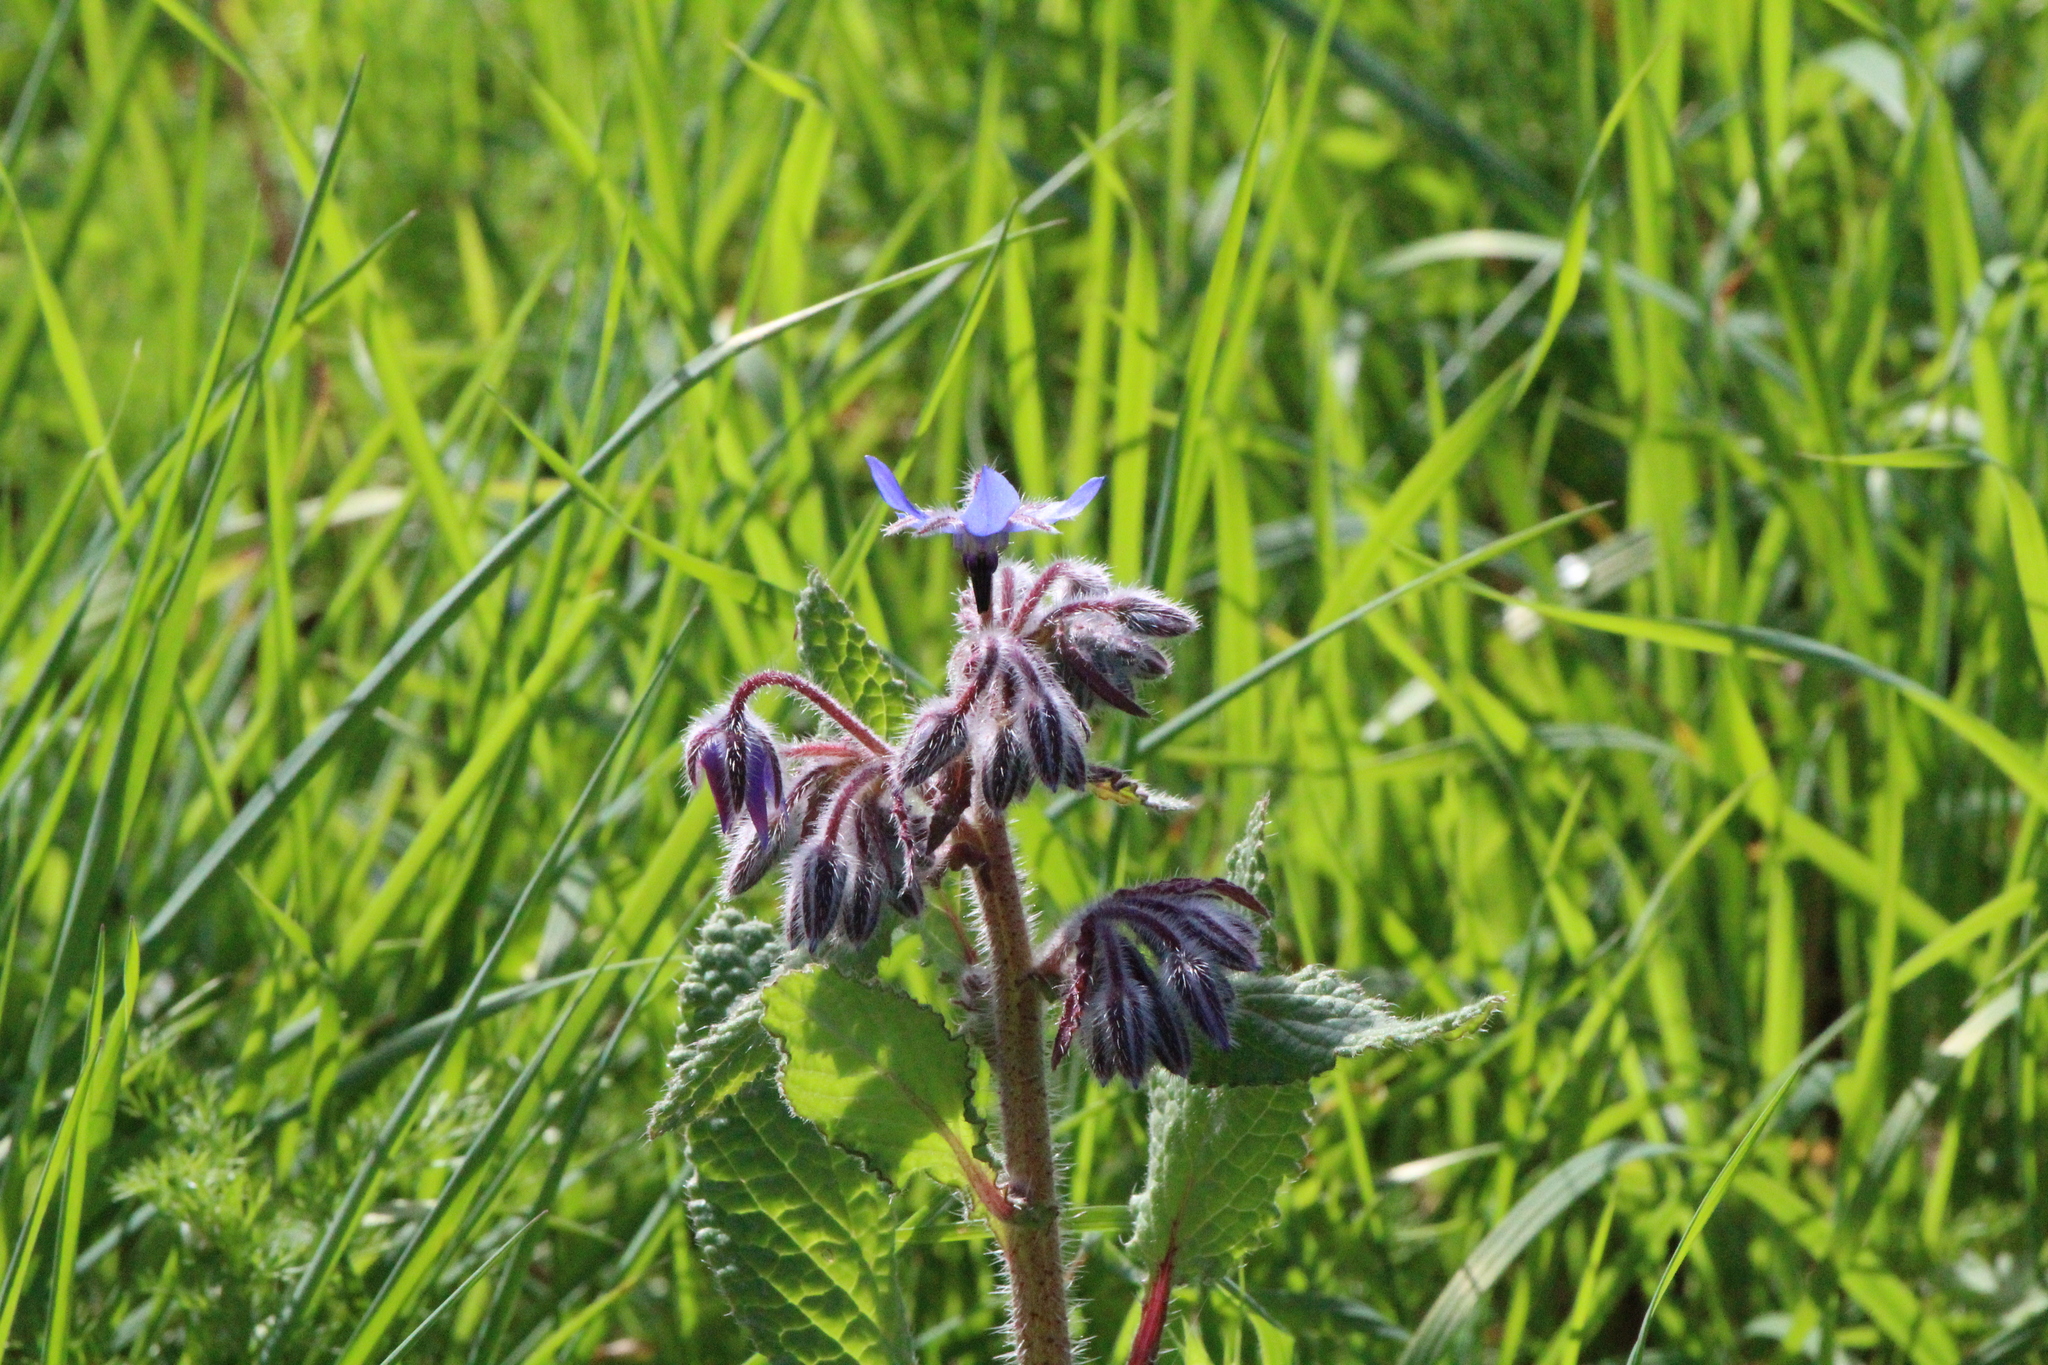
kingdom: Plantae
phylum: Tracheophyta
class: Magnoliopsida
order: Boraginales
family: Boraginaceae
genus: Borago
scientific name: Borago officinalis
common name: Borage
